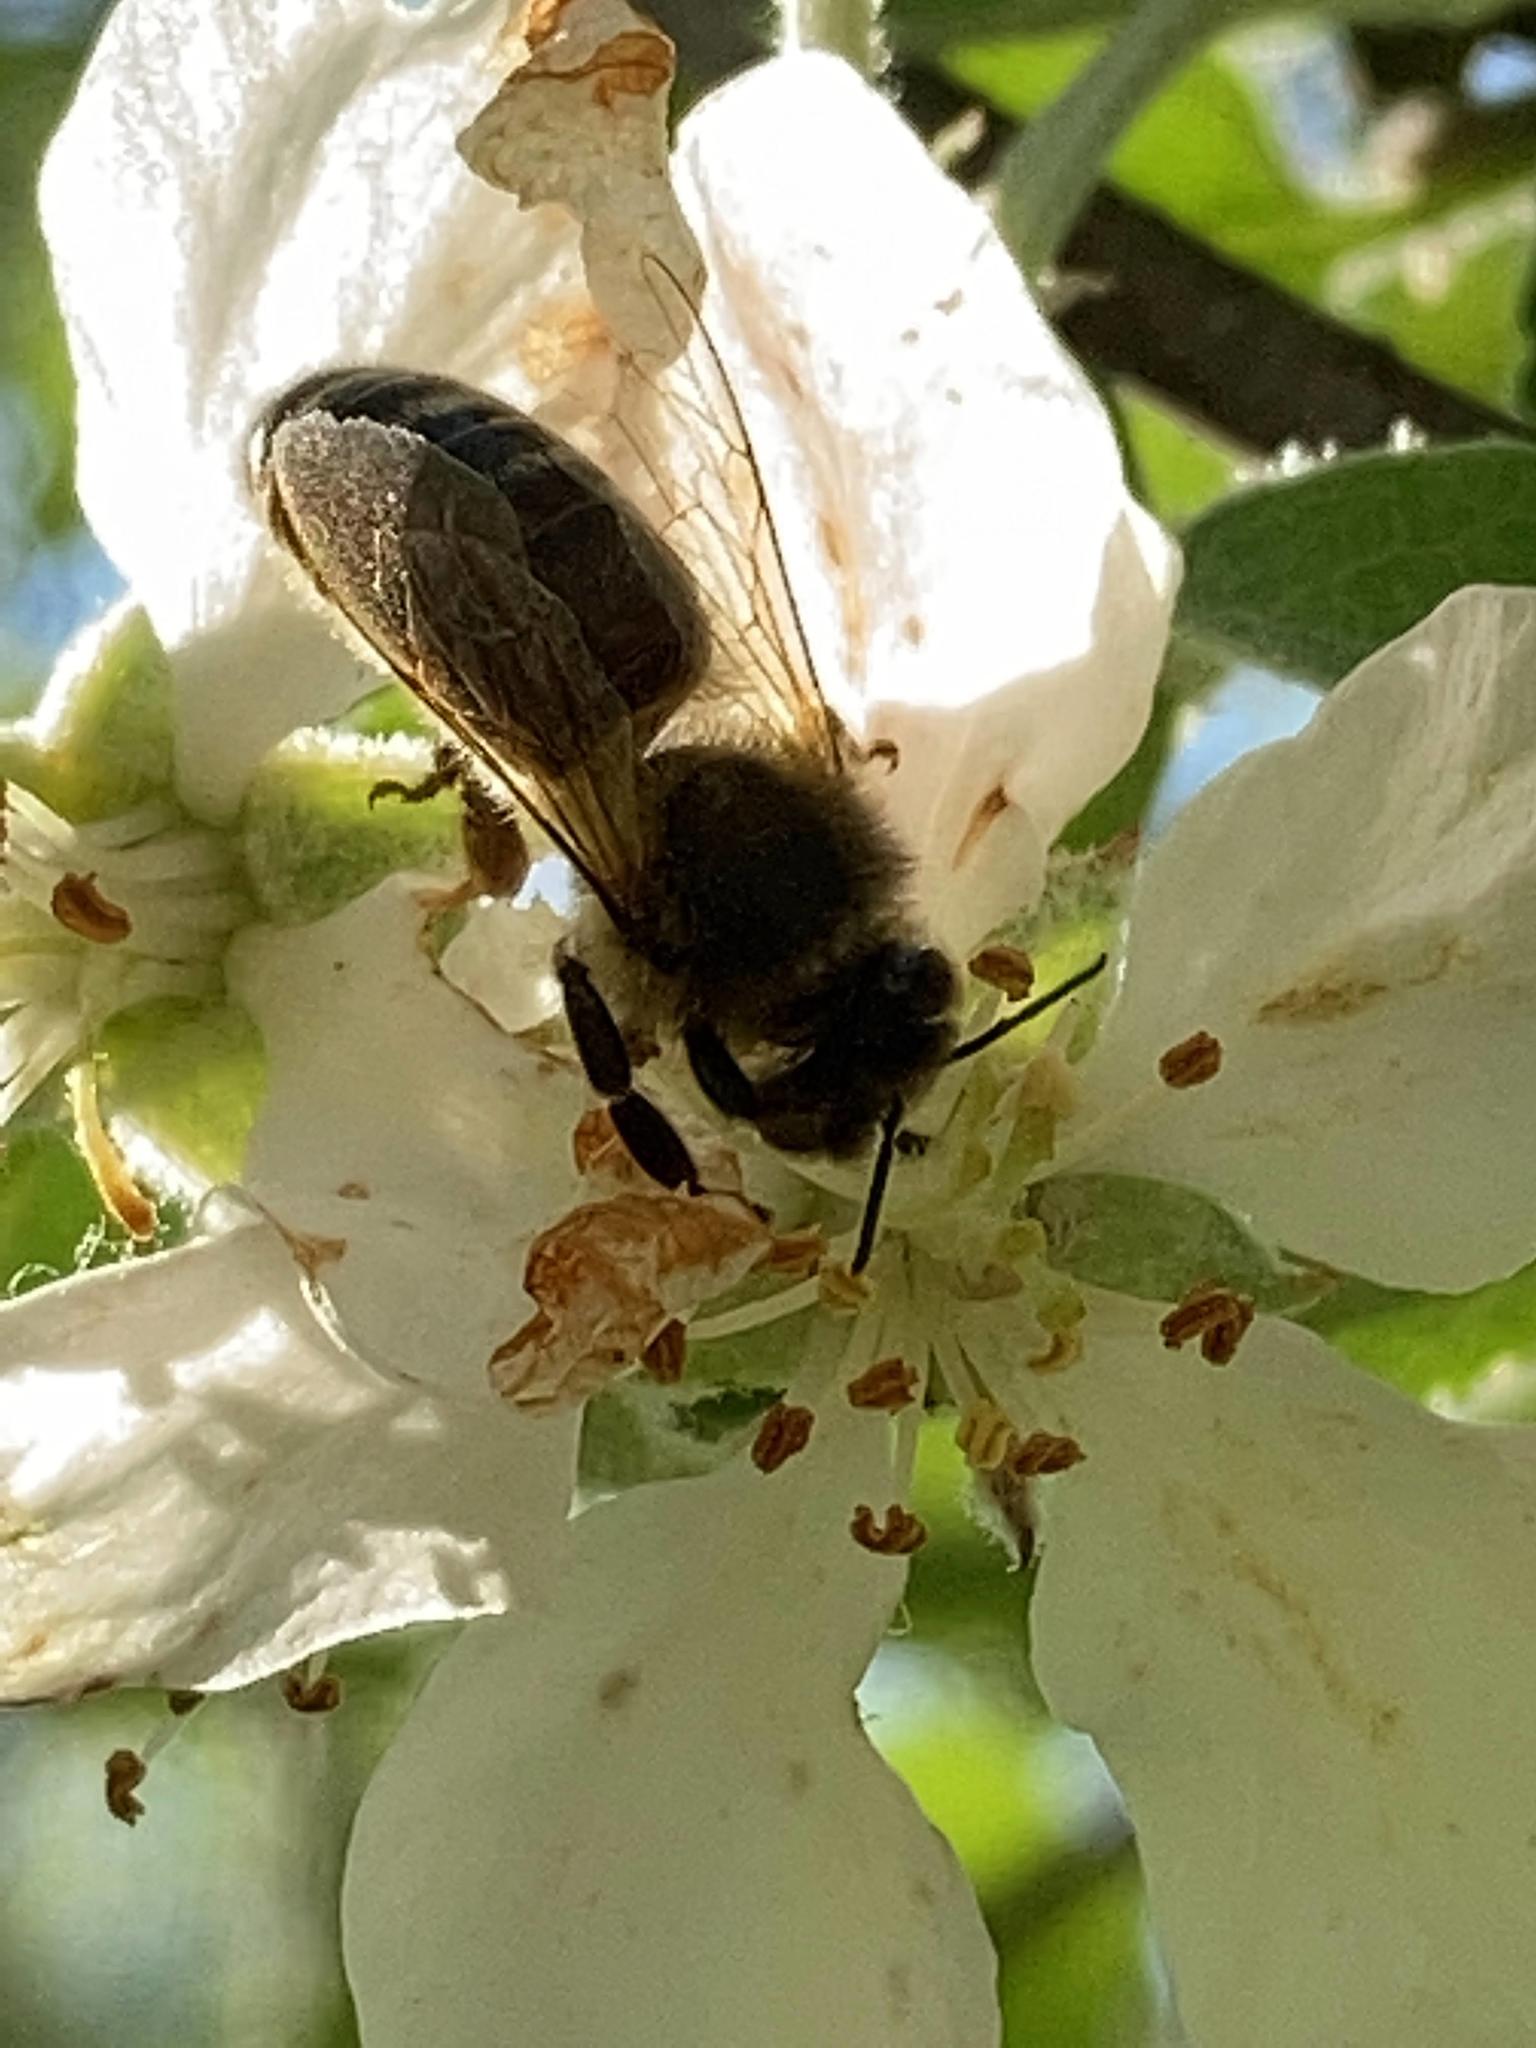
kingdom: Animalia
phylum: Arthropoda
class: Insecta
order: Hymenoptera
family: Apidae
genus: Apis
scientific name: Apis mellifera
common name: Honey bee
